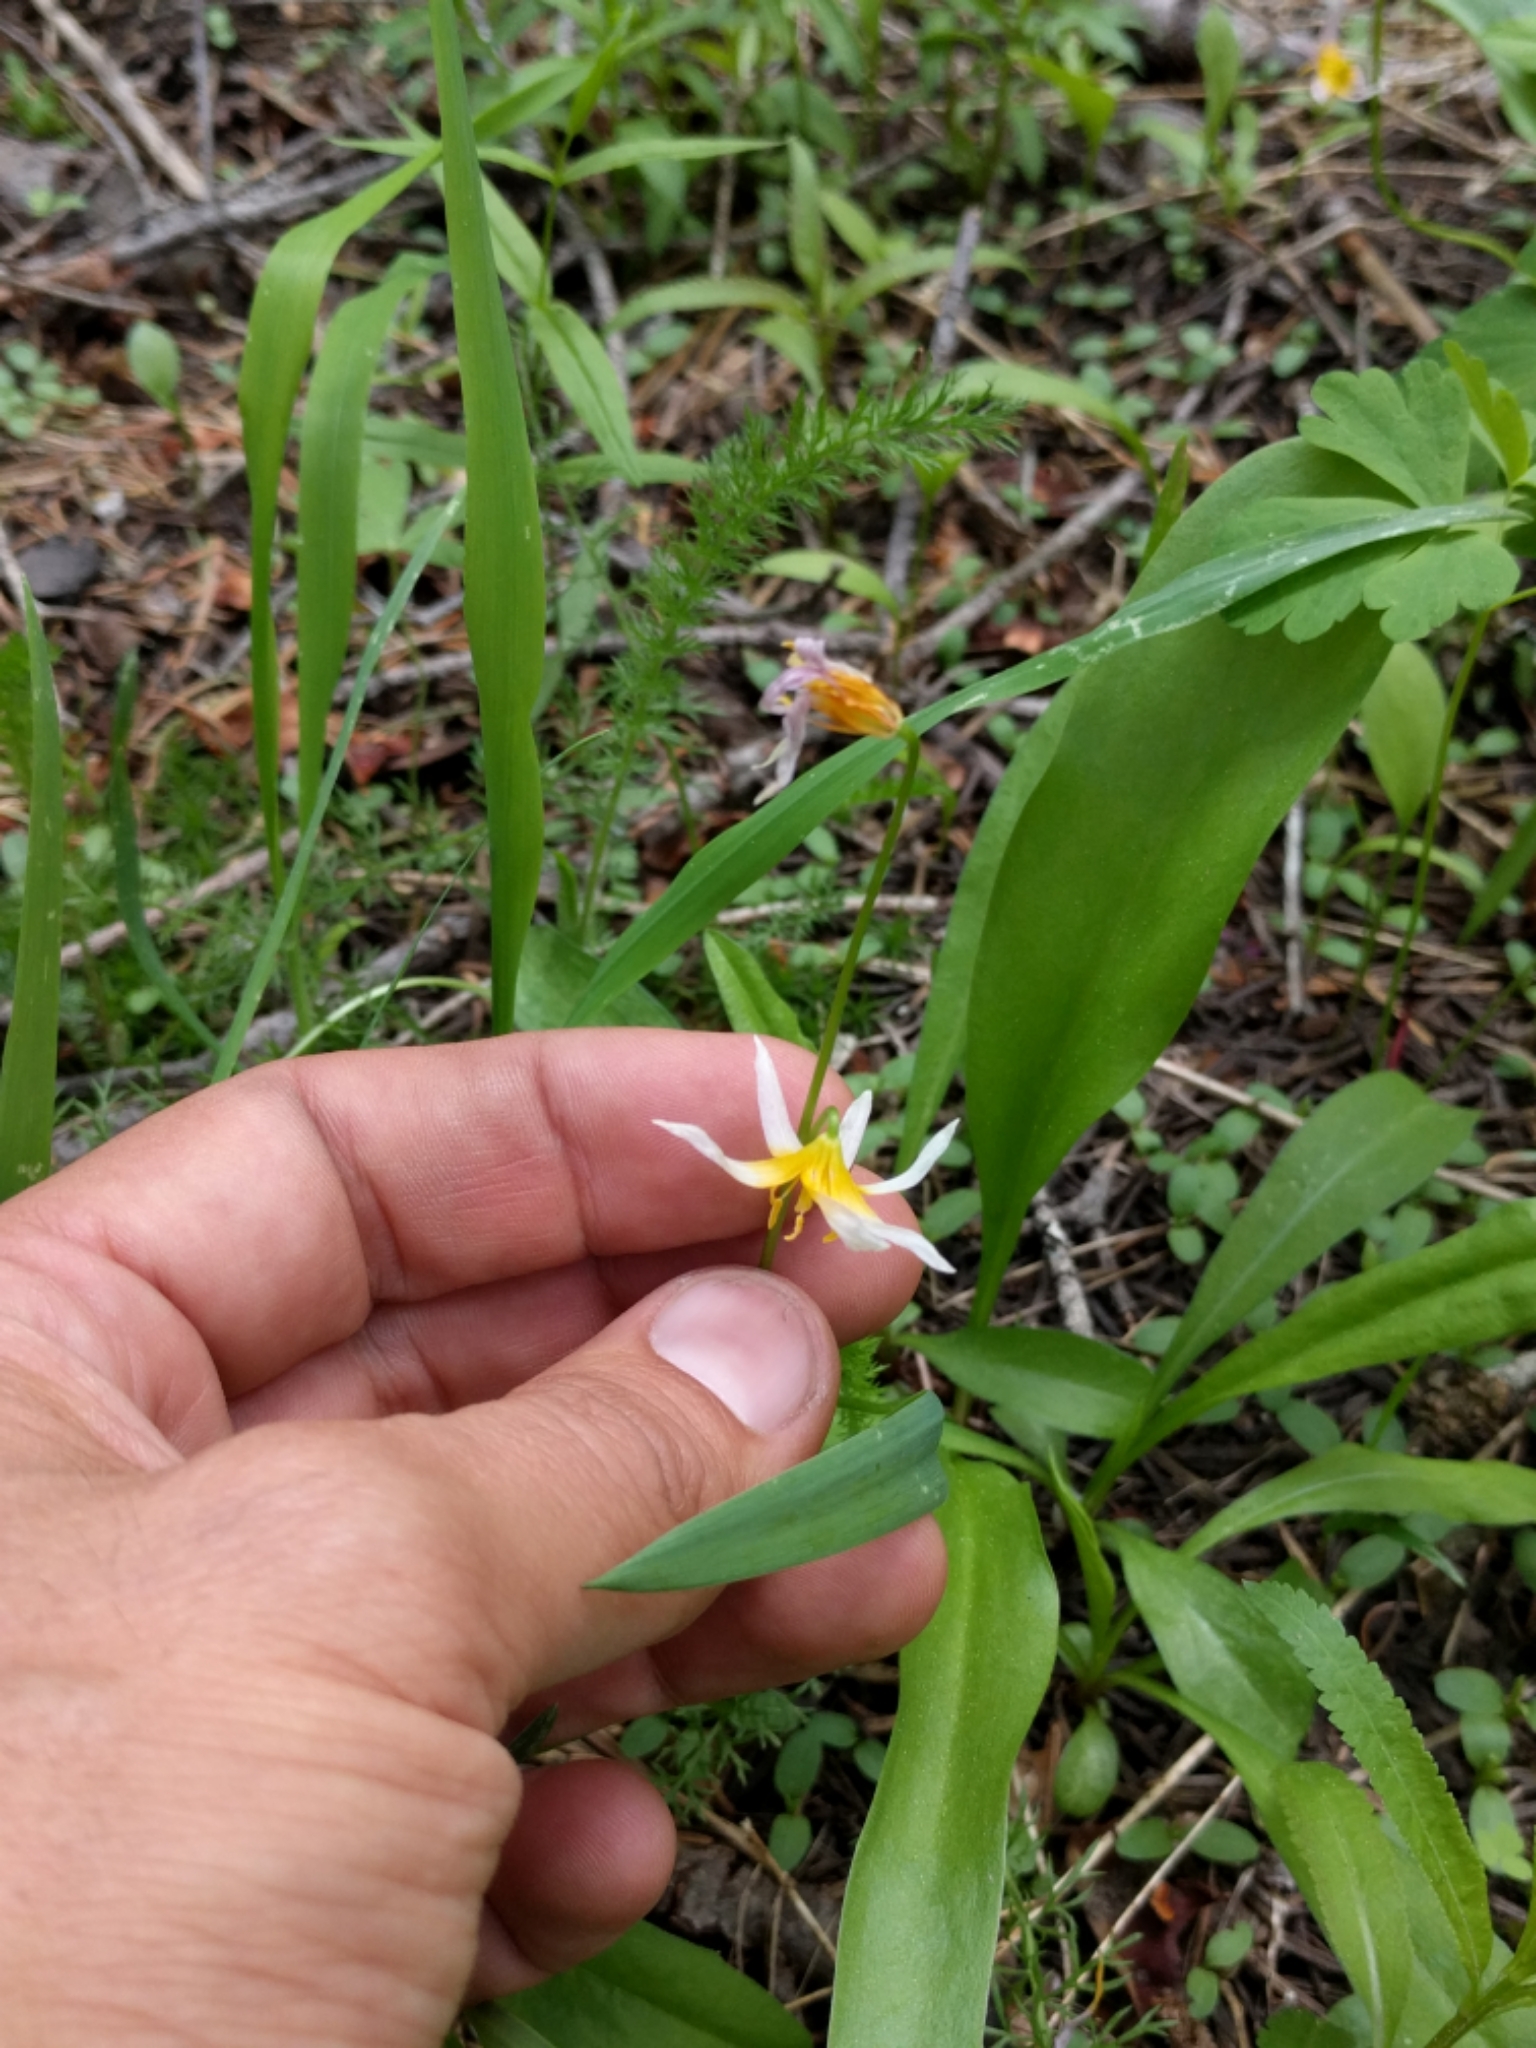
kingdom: Plantae
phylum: Tracheophyta
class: Liliopsida
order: Liliales
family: Liliaceae
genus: Erythronium
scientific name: Erythronium purpurascens
